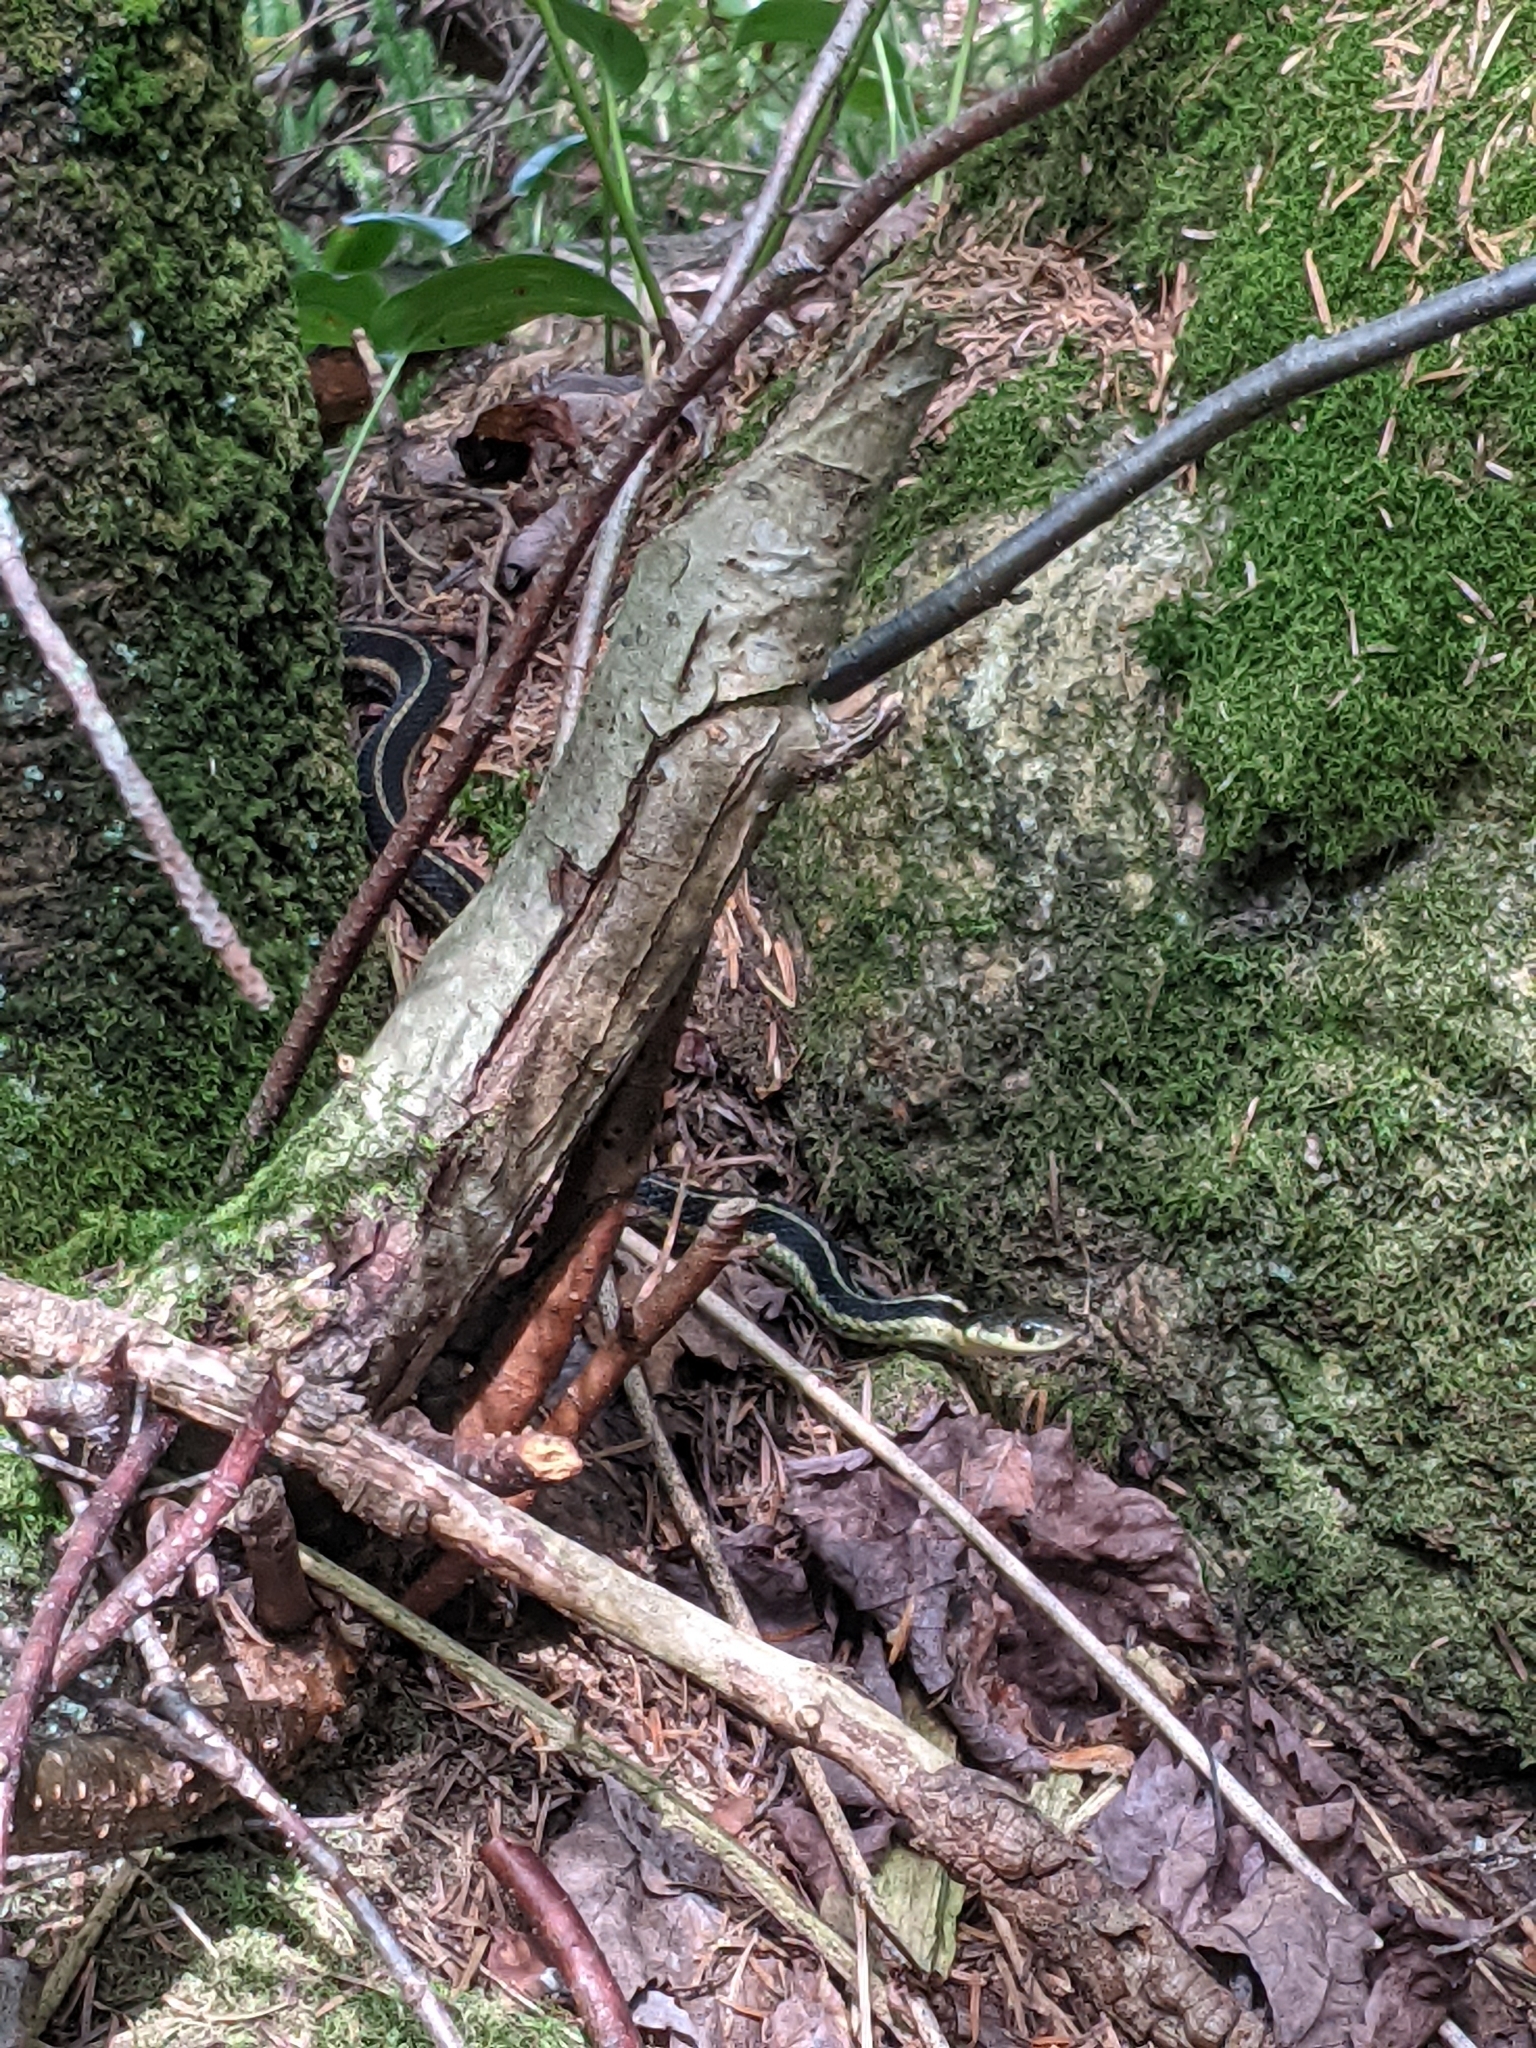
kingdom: Animalia
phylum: Chordata
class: Squamata
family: Colubridae
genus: Thamnophis
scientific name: Thamnophis sirtalis
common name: Common garter snake
